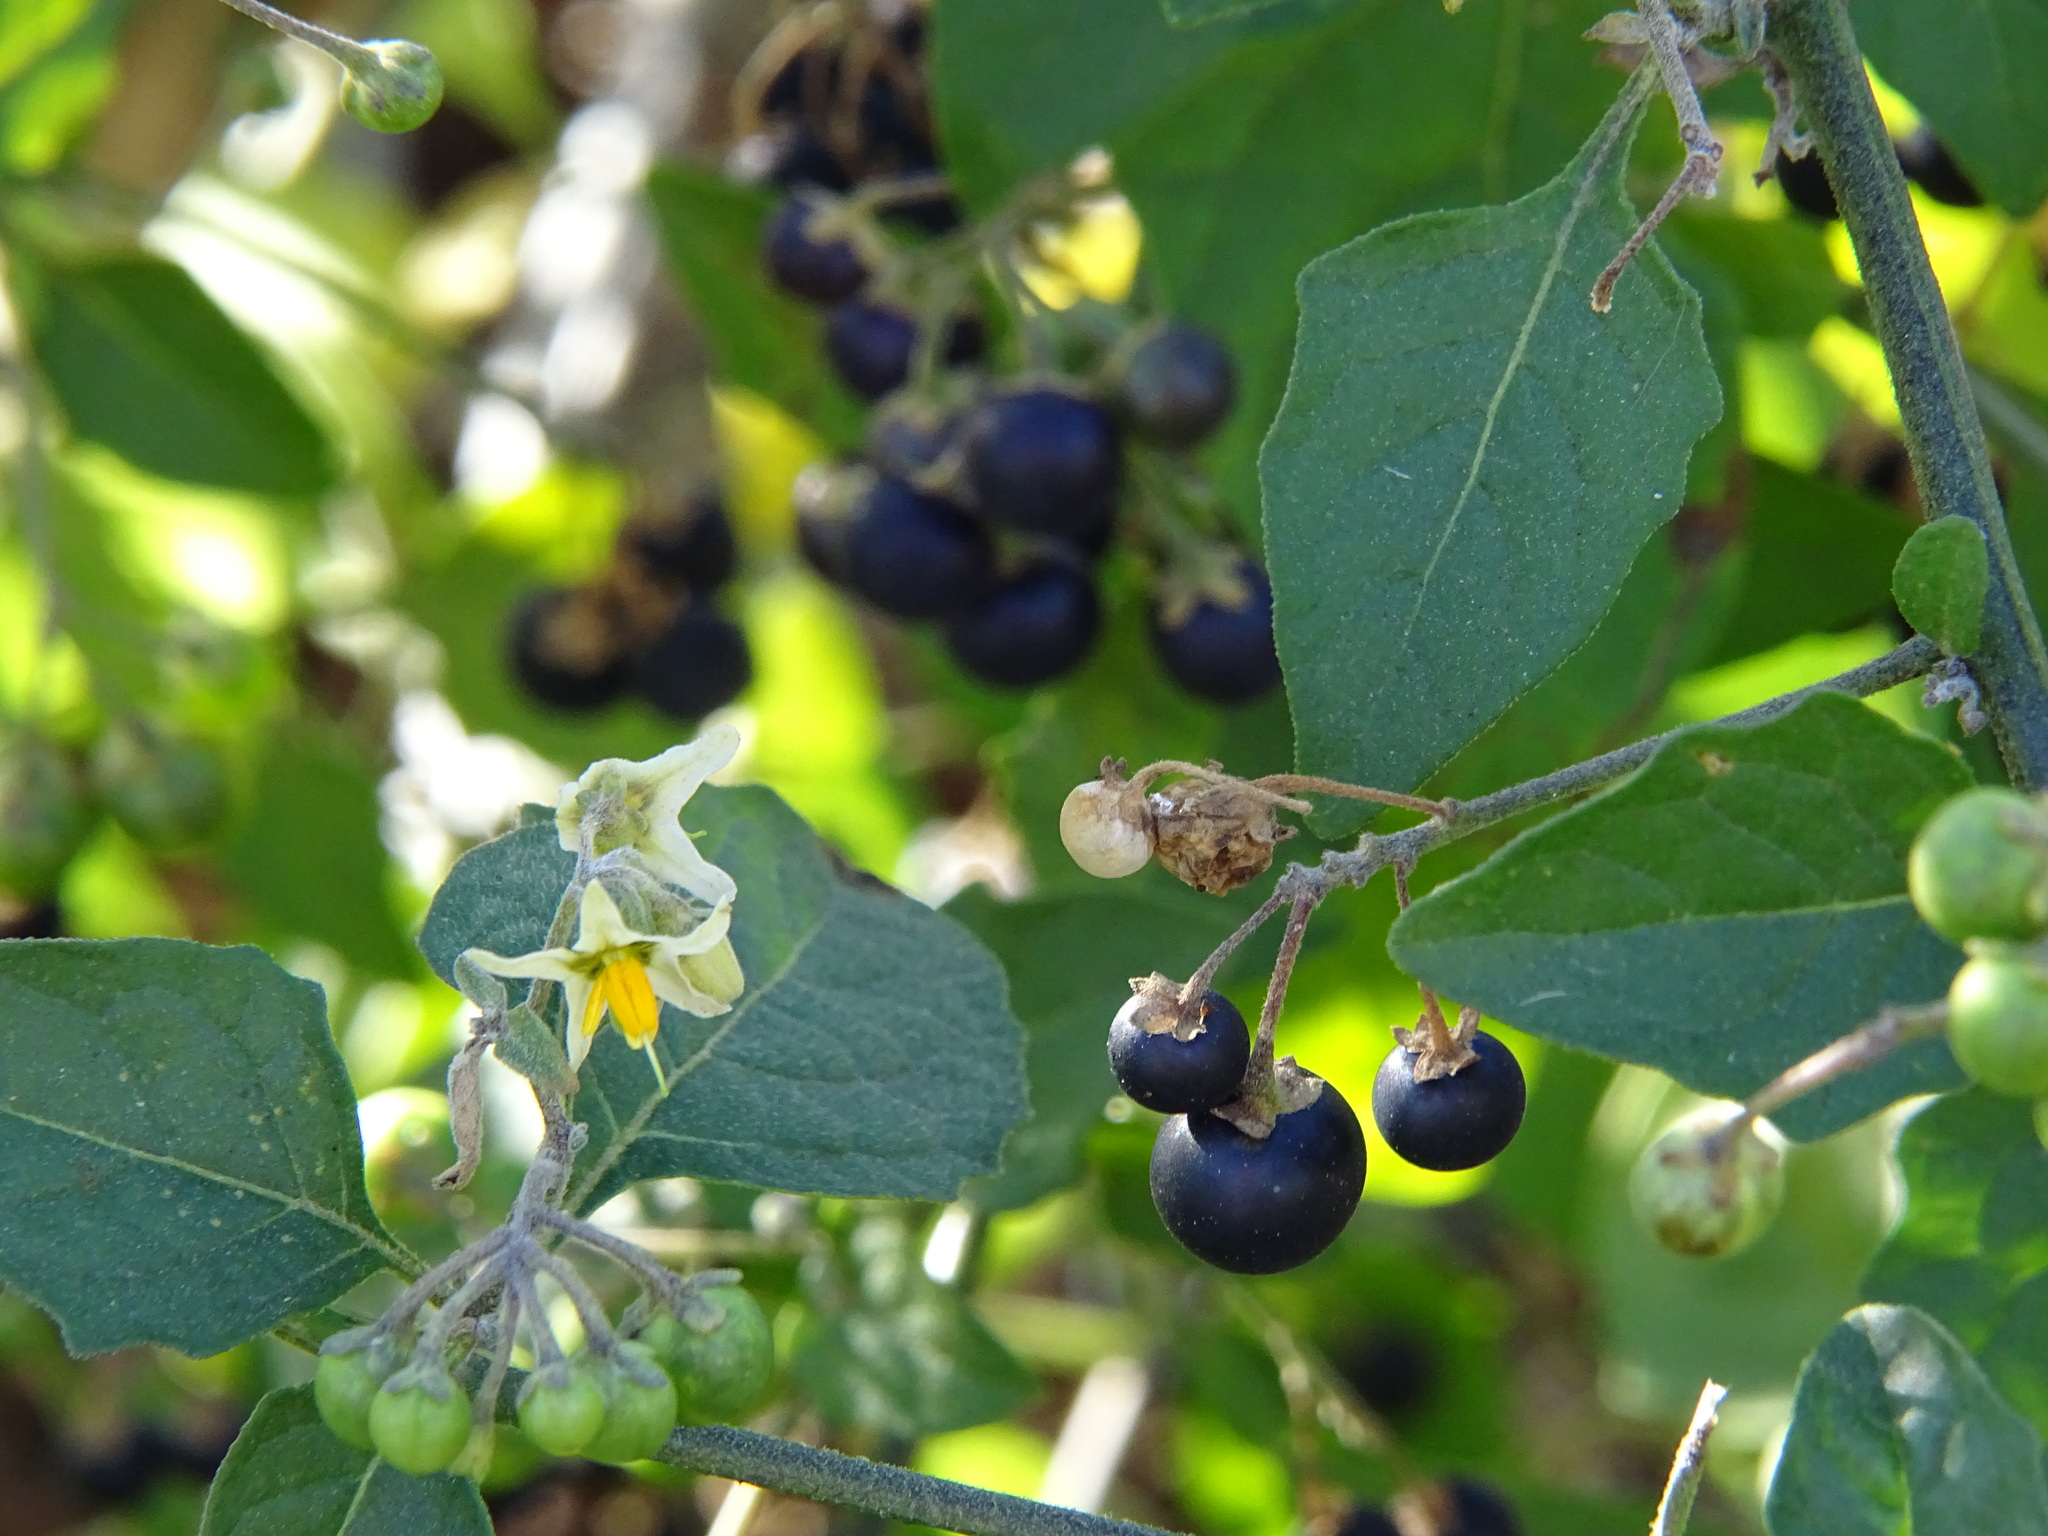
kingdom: Plantae
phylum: Tracheophyta
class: Magnoliopsida
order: Solanales
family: Solanaceae
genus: Solanum
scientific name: Solanum douglasii
